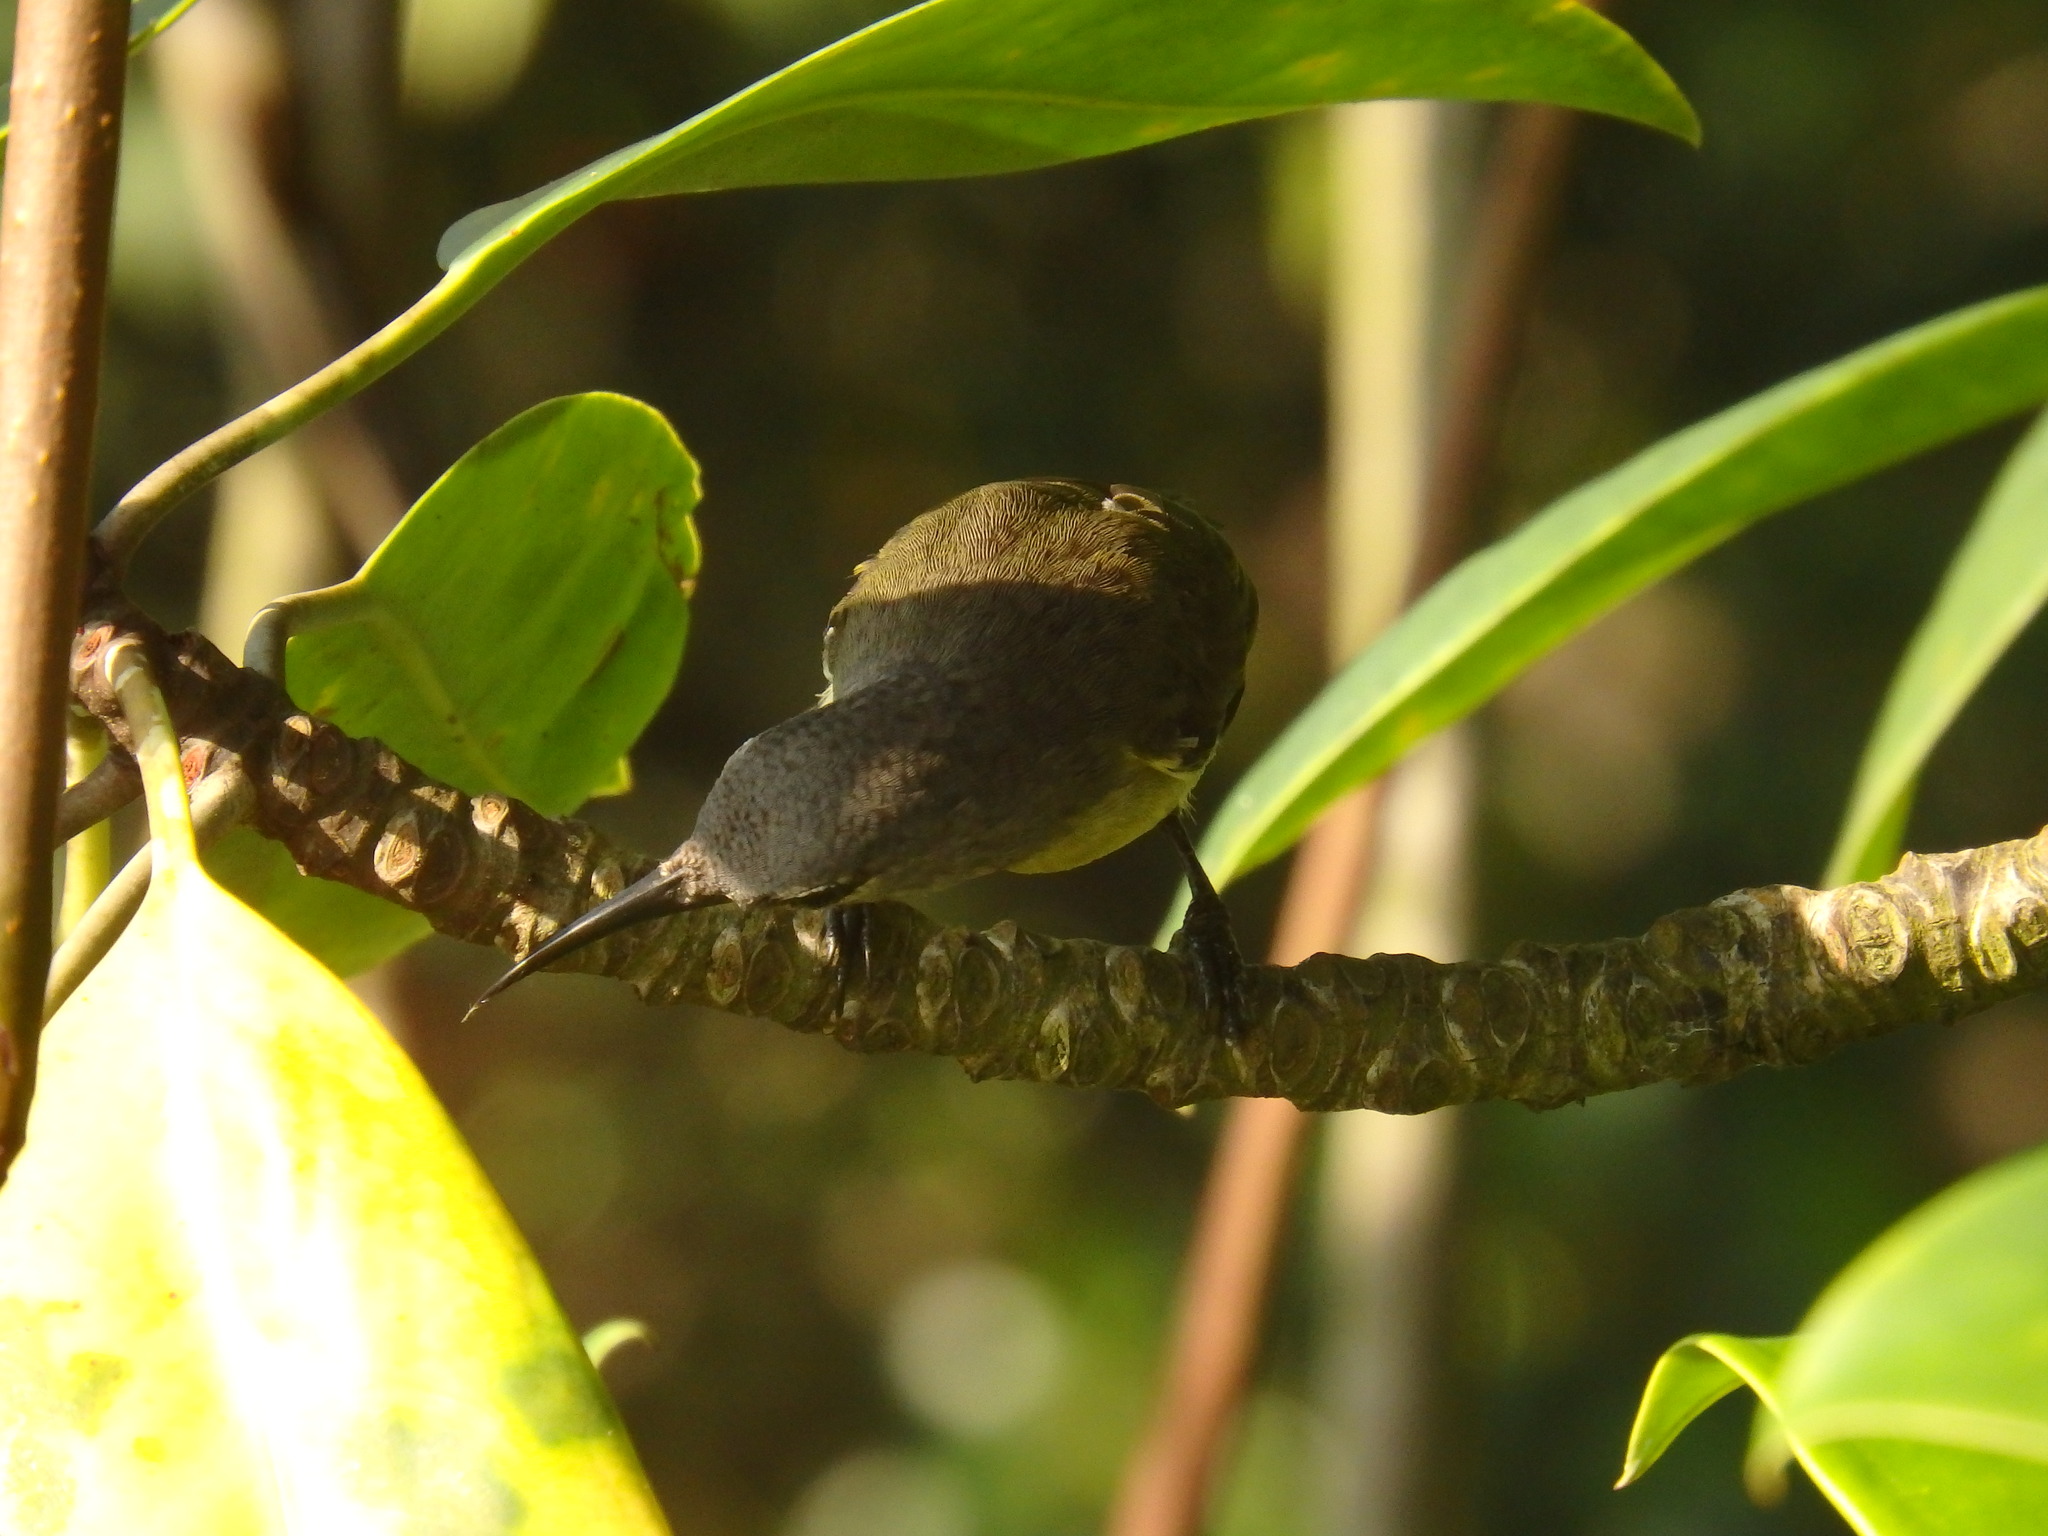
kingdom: Animalia
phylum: Chordata
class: Aves
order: Passeriformes
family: Nectariniidae
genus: Leptocoma
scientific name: Leptocoma calcostetha
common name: Copper-throated sunbird
